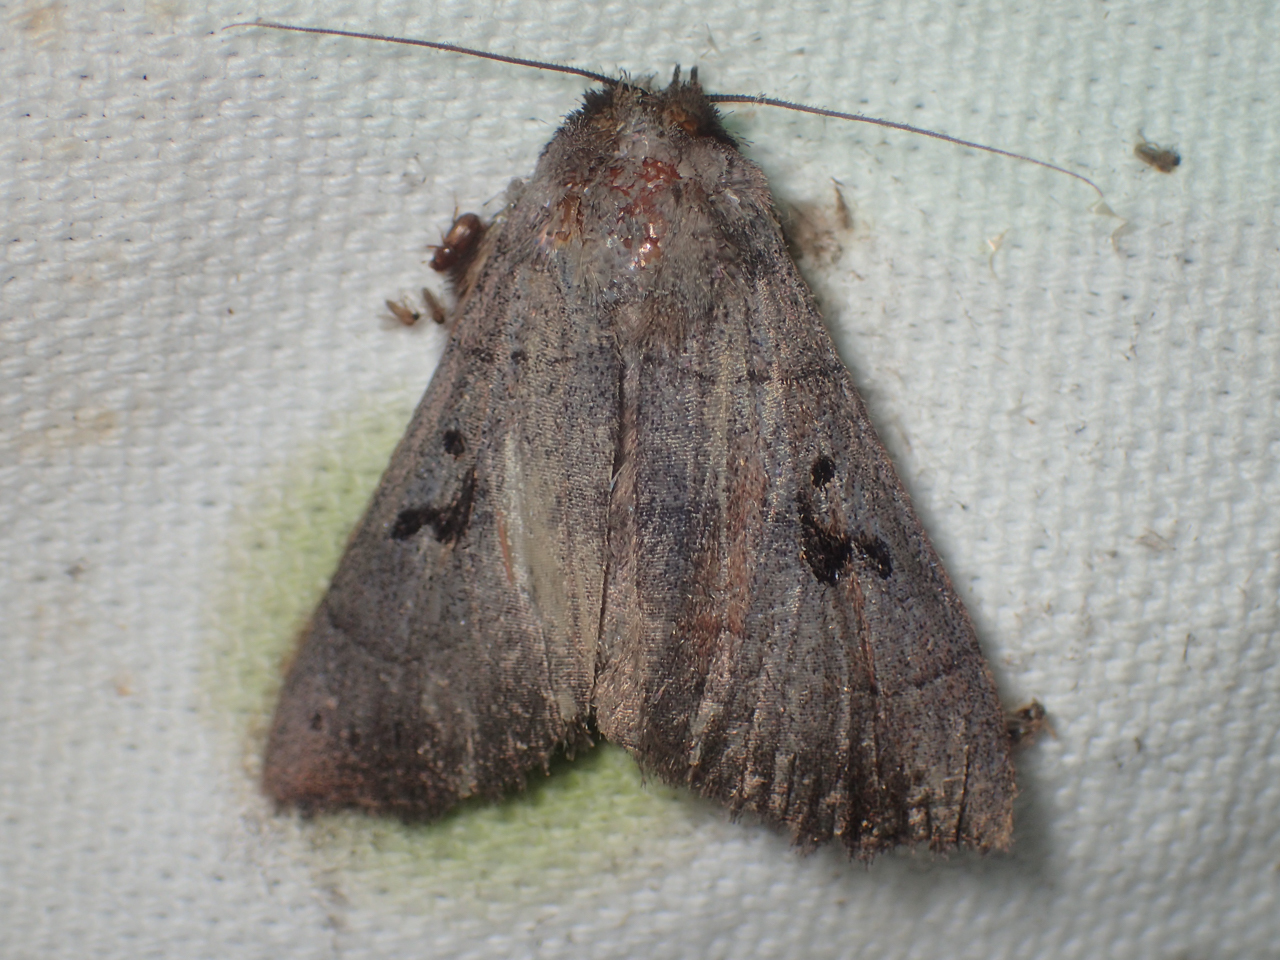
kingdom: Animalia
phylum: Arthropoda
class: Insecta
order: Lepidoptera
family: Erebidae
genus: Panopoda
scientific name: Panopoda carneicosta
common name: Brown panopoda moth
